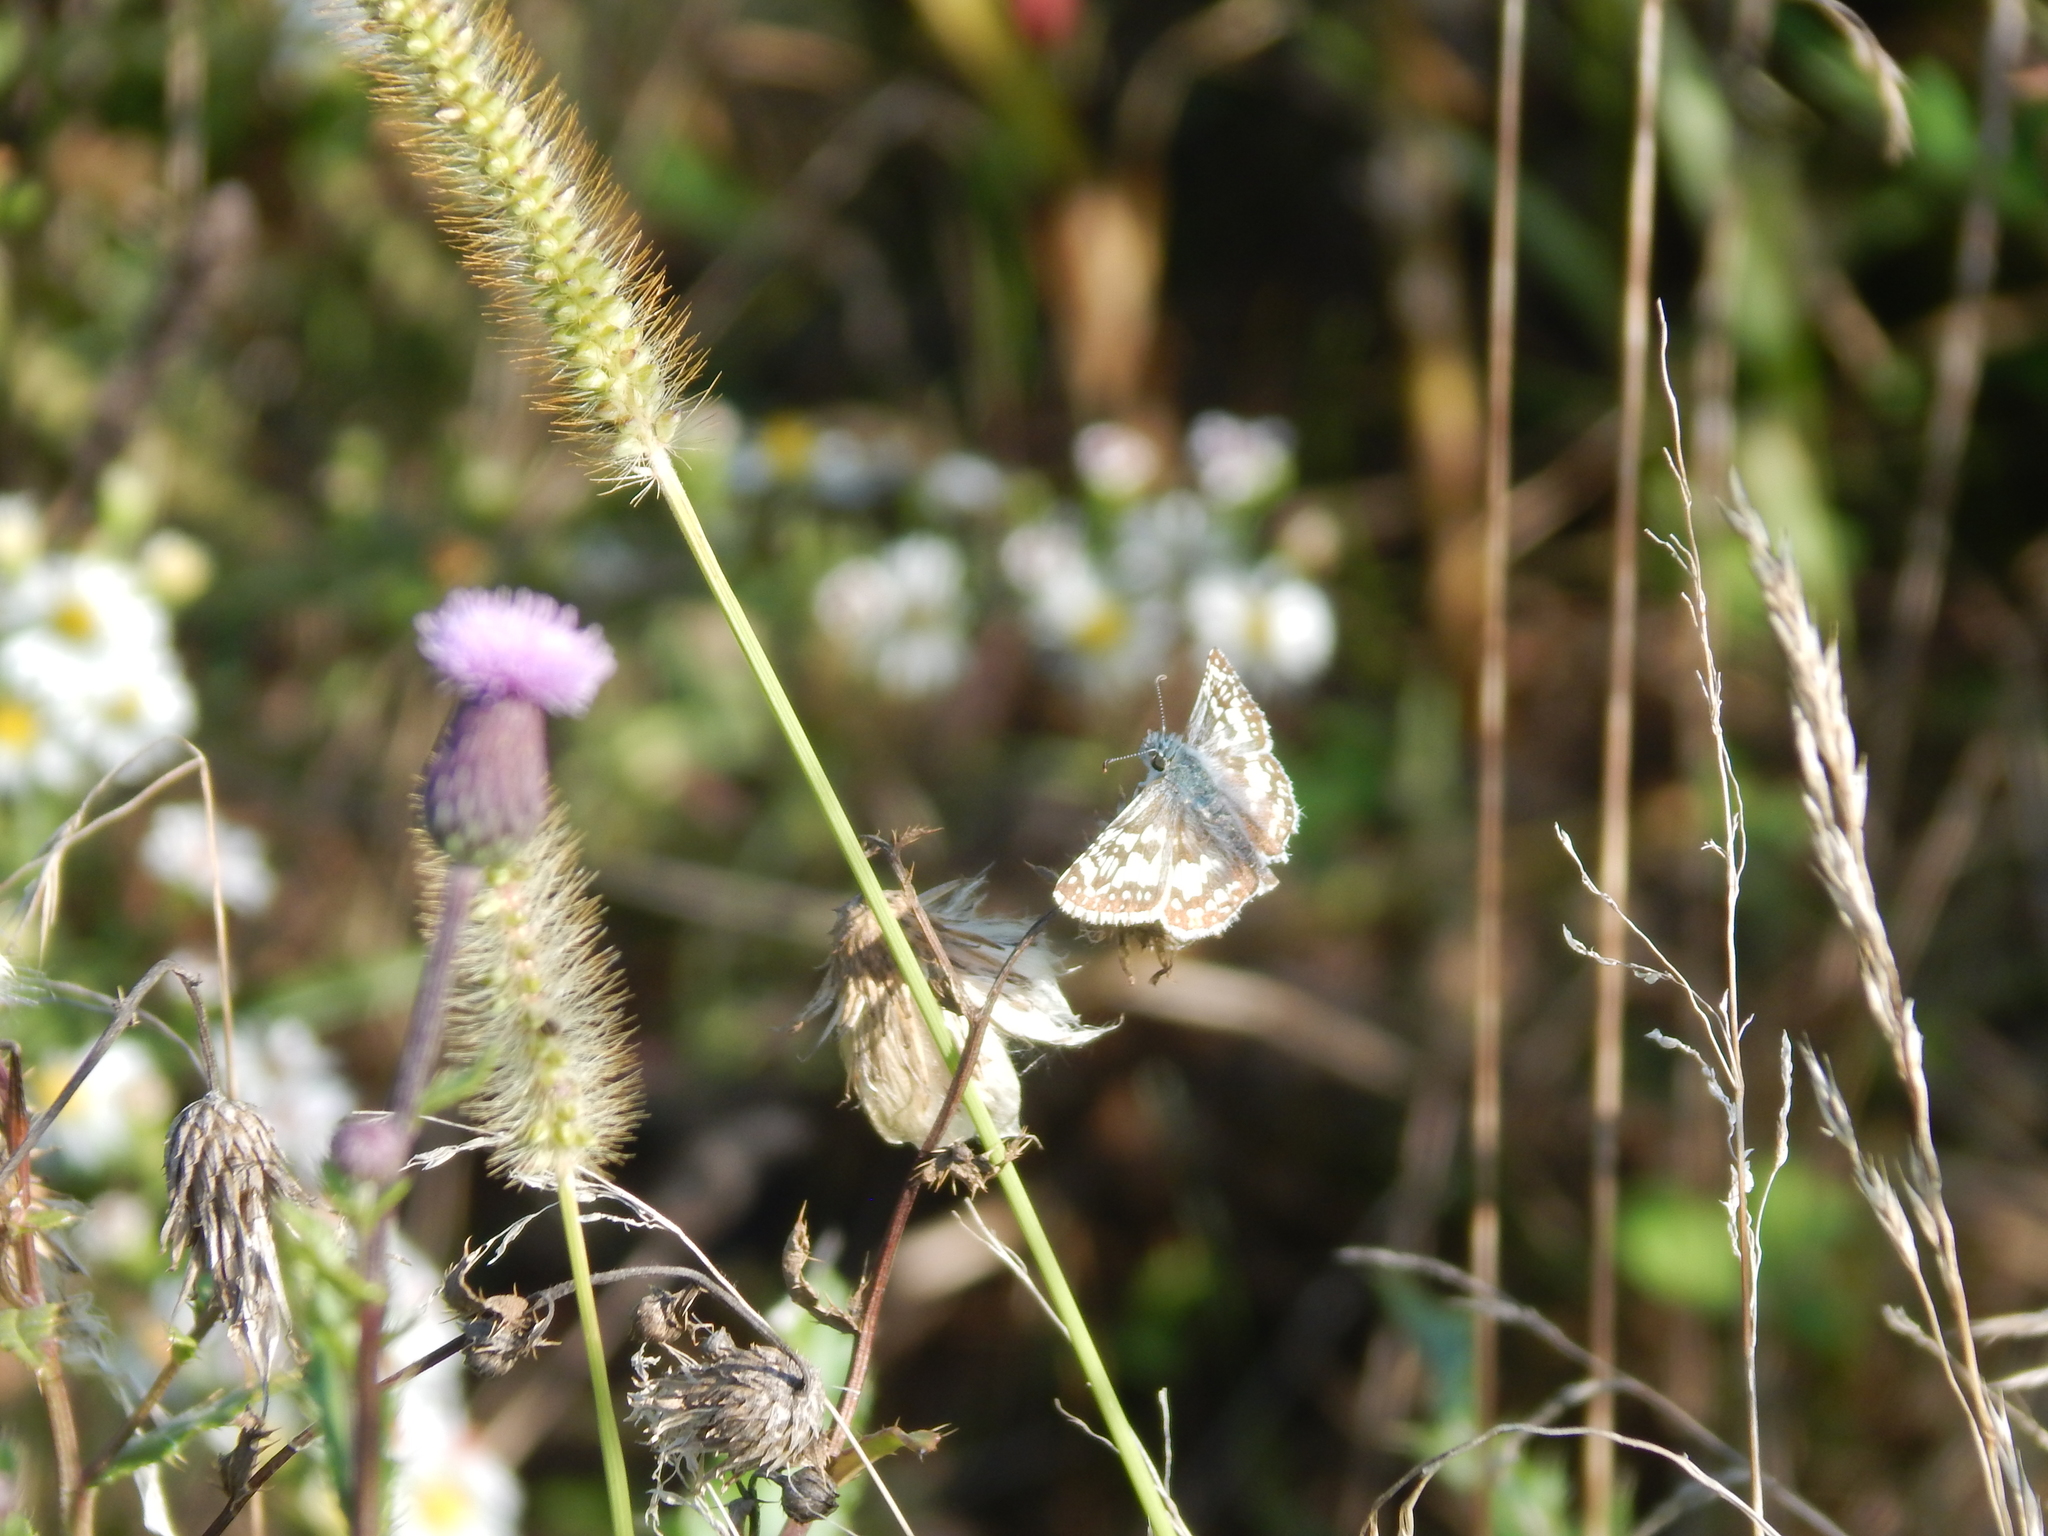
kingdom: Animalia
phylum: Arthropoda
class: Insecta
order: Lepidoptera
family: Hesperiidae
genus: Burnsius
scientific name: Burnsius communis
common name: Common checkered-skipper
